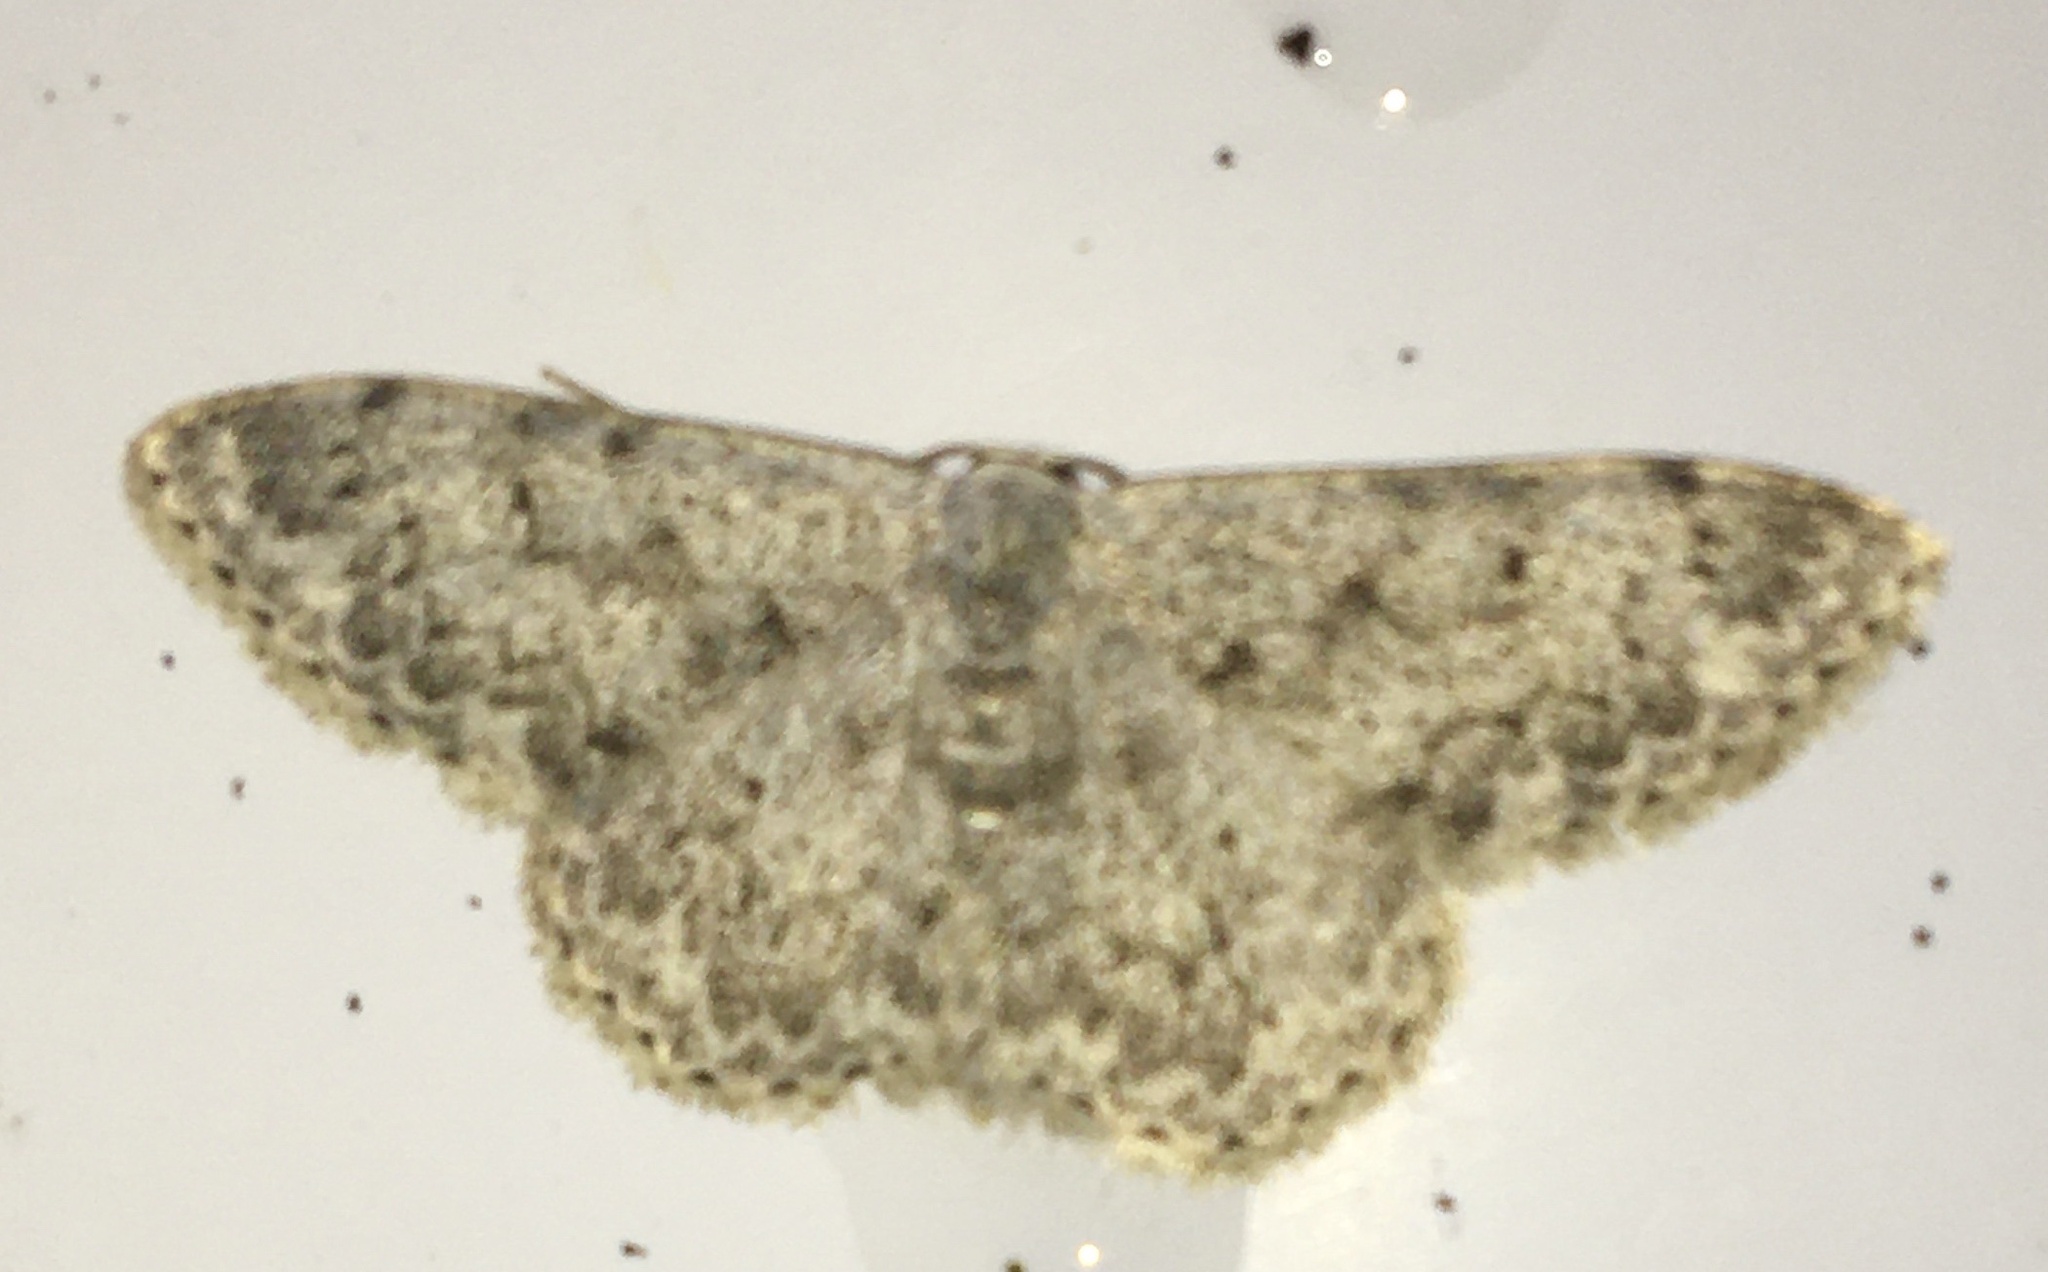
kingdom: Animalia
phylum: Arthropoda
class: Insecta
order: Lepidoptera
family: Geometridae
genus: Scopula
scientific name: Scopula marginepunctata
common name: Mullein wave
